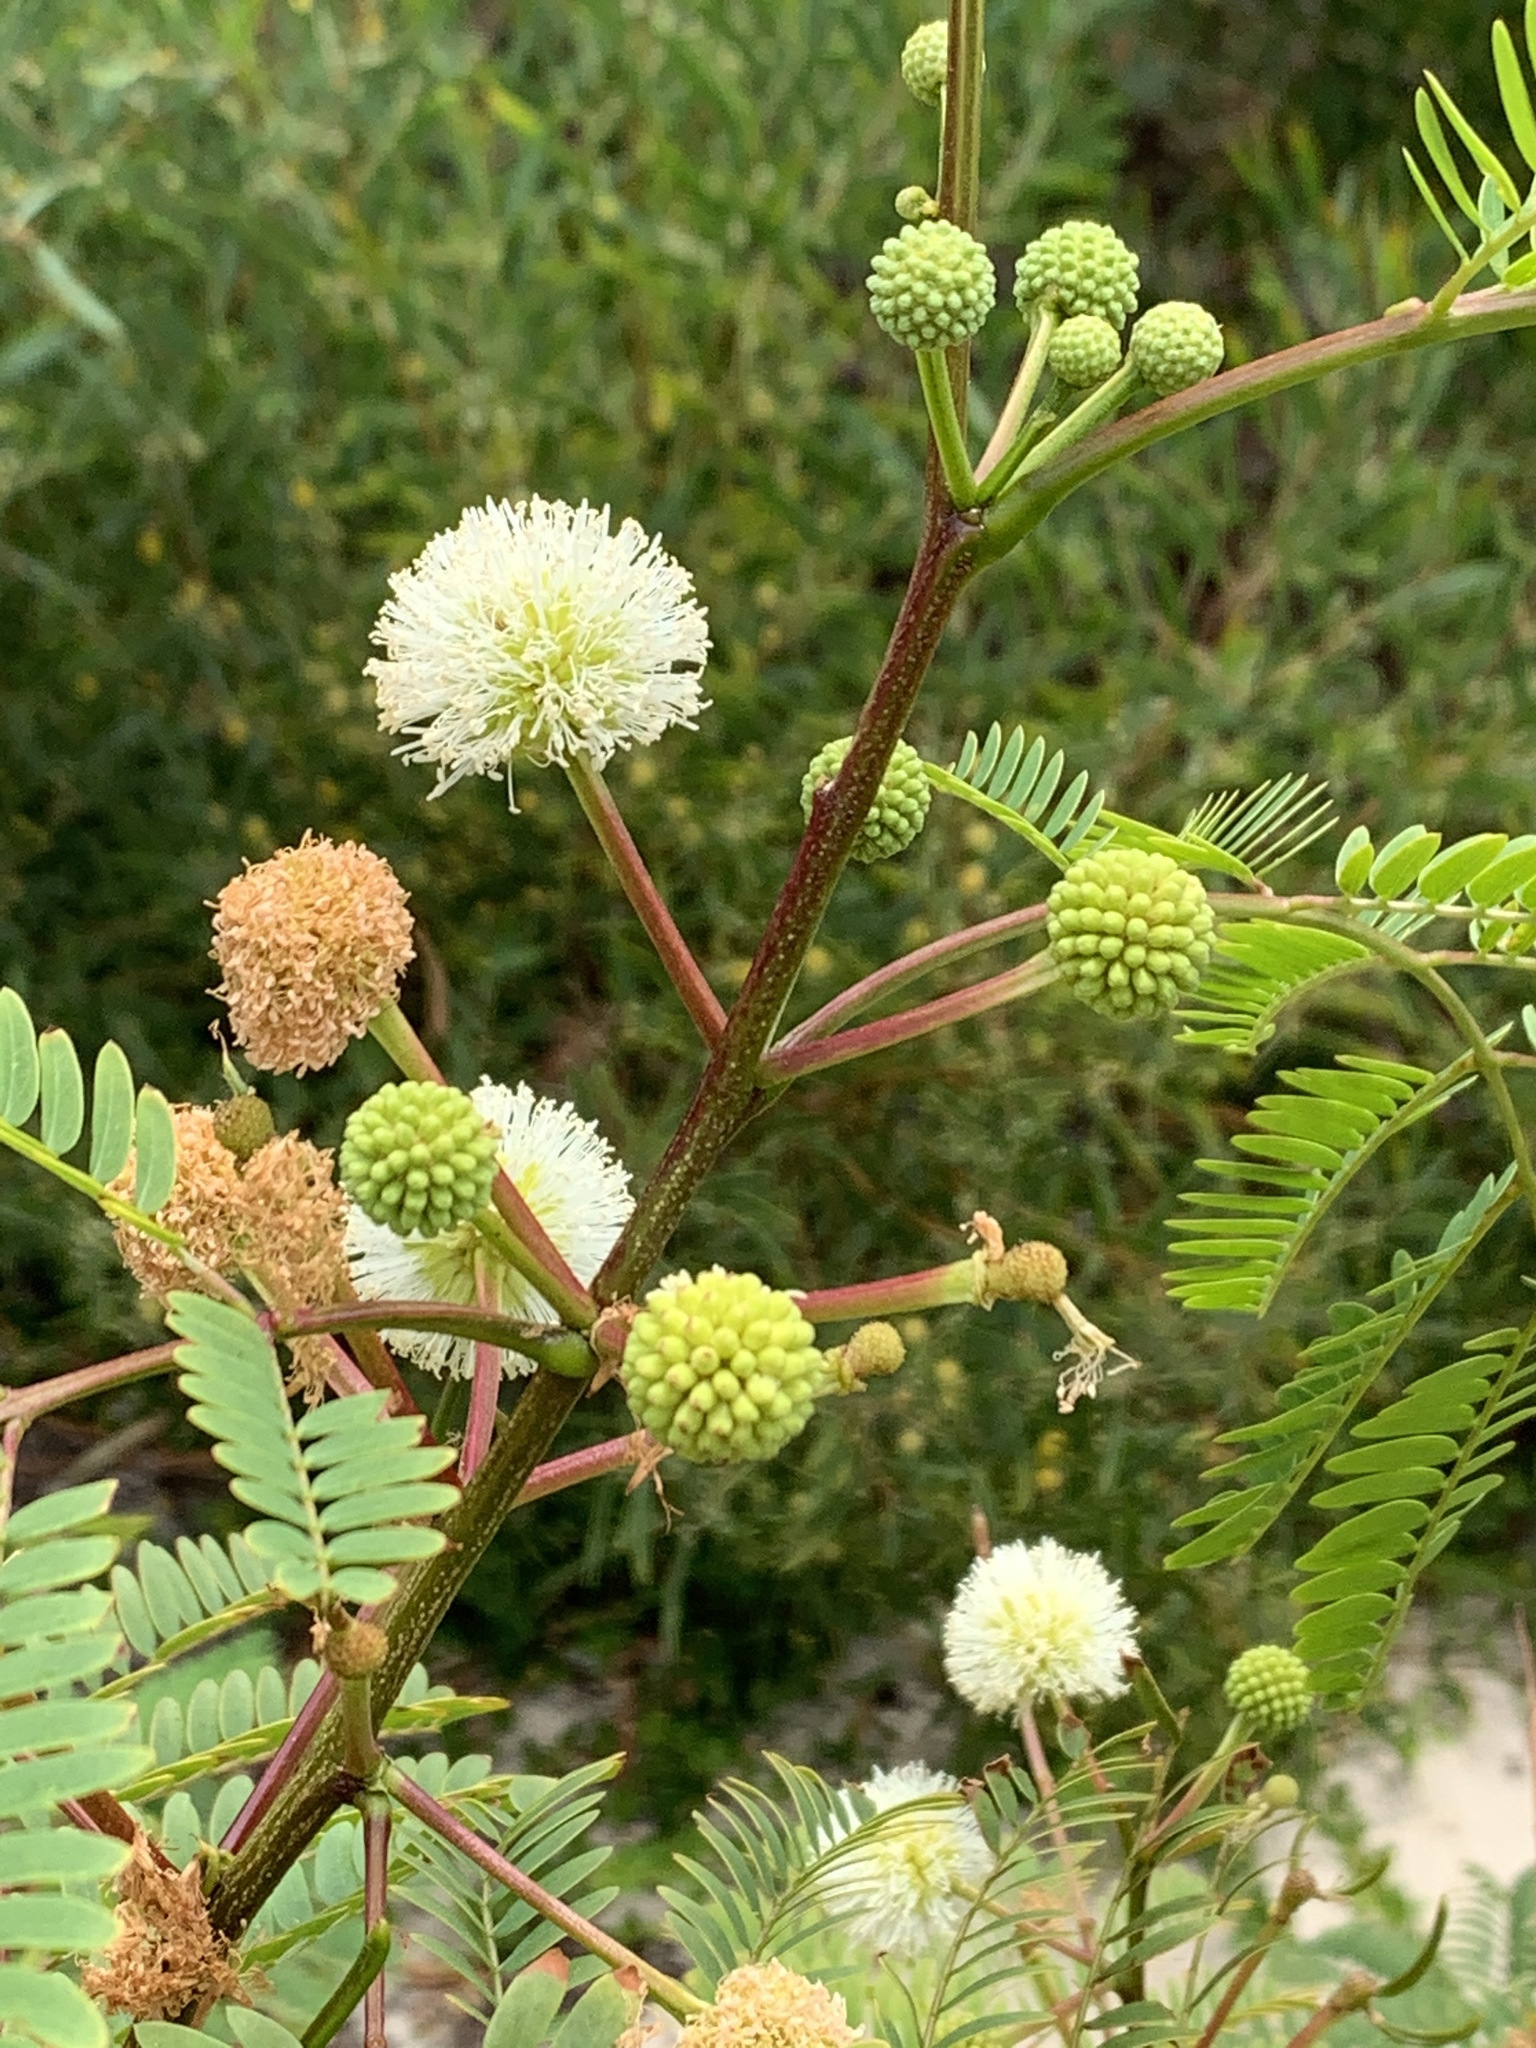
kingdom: Plantae
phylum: Tracheophyta
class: Magnoliopsida
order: Fabales
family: Fabaceae
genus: Leucaena
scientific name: Leucaena leucocephala
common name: White leadtree
